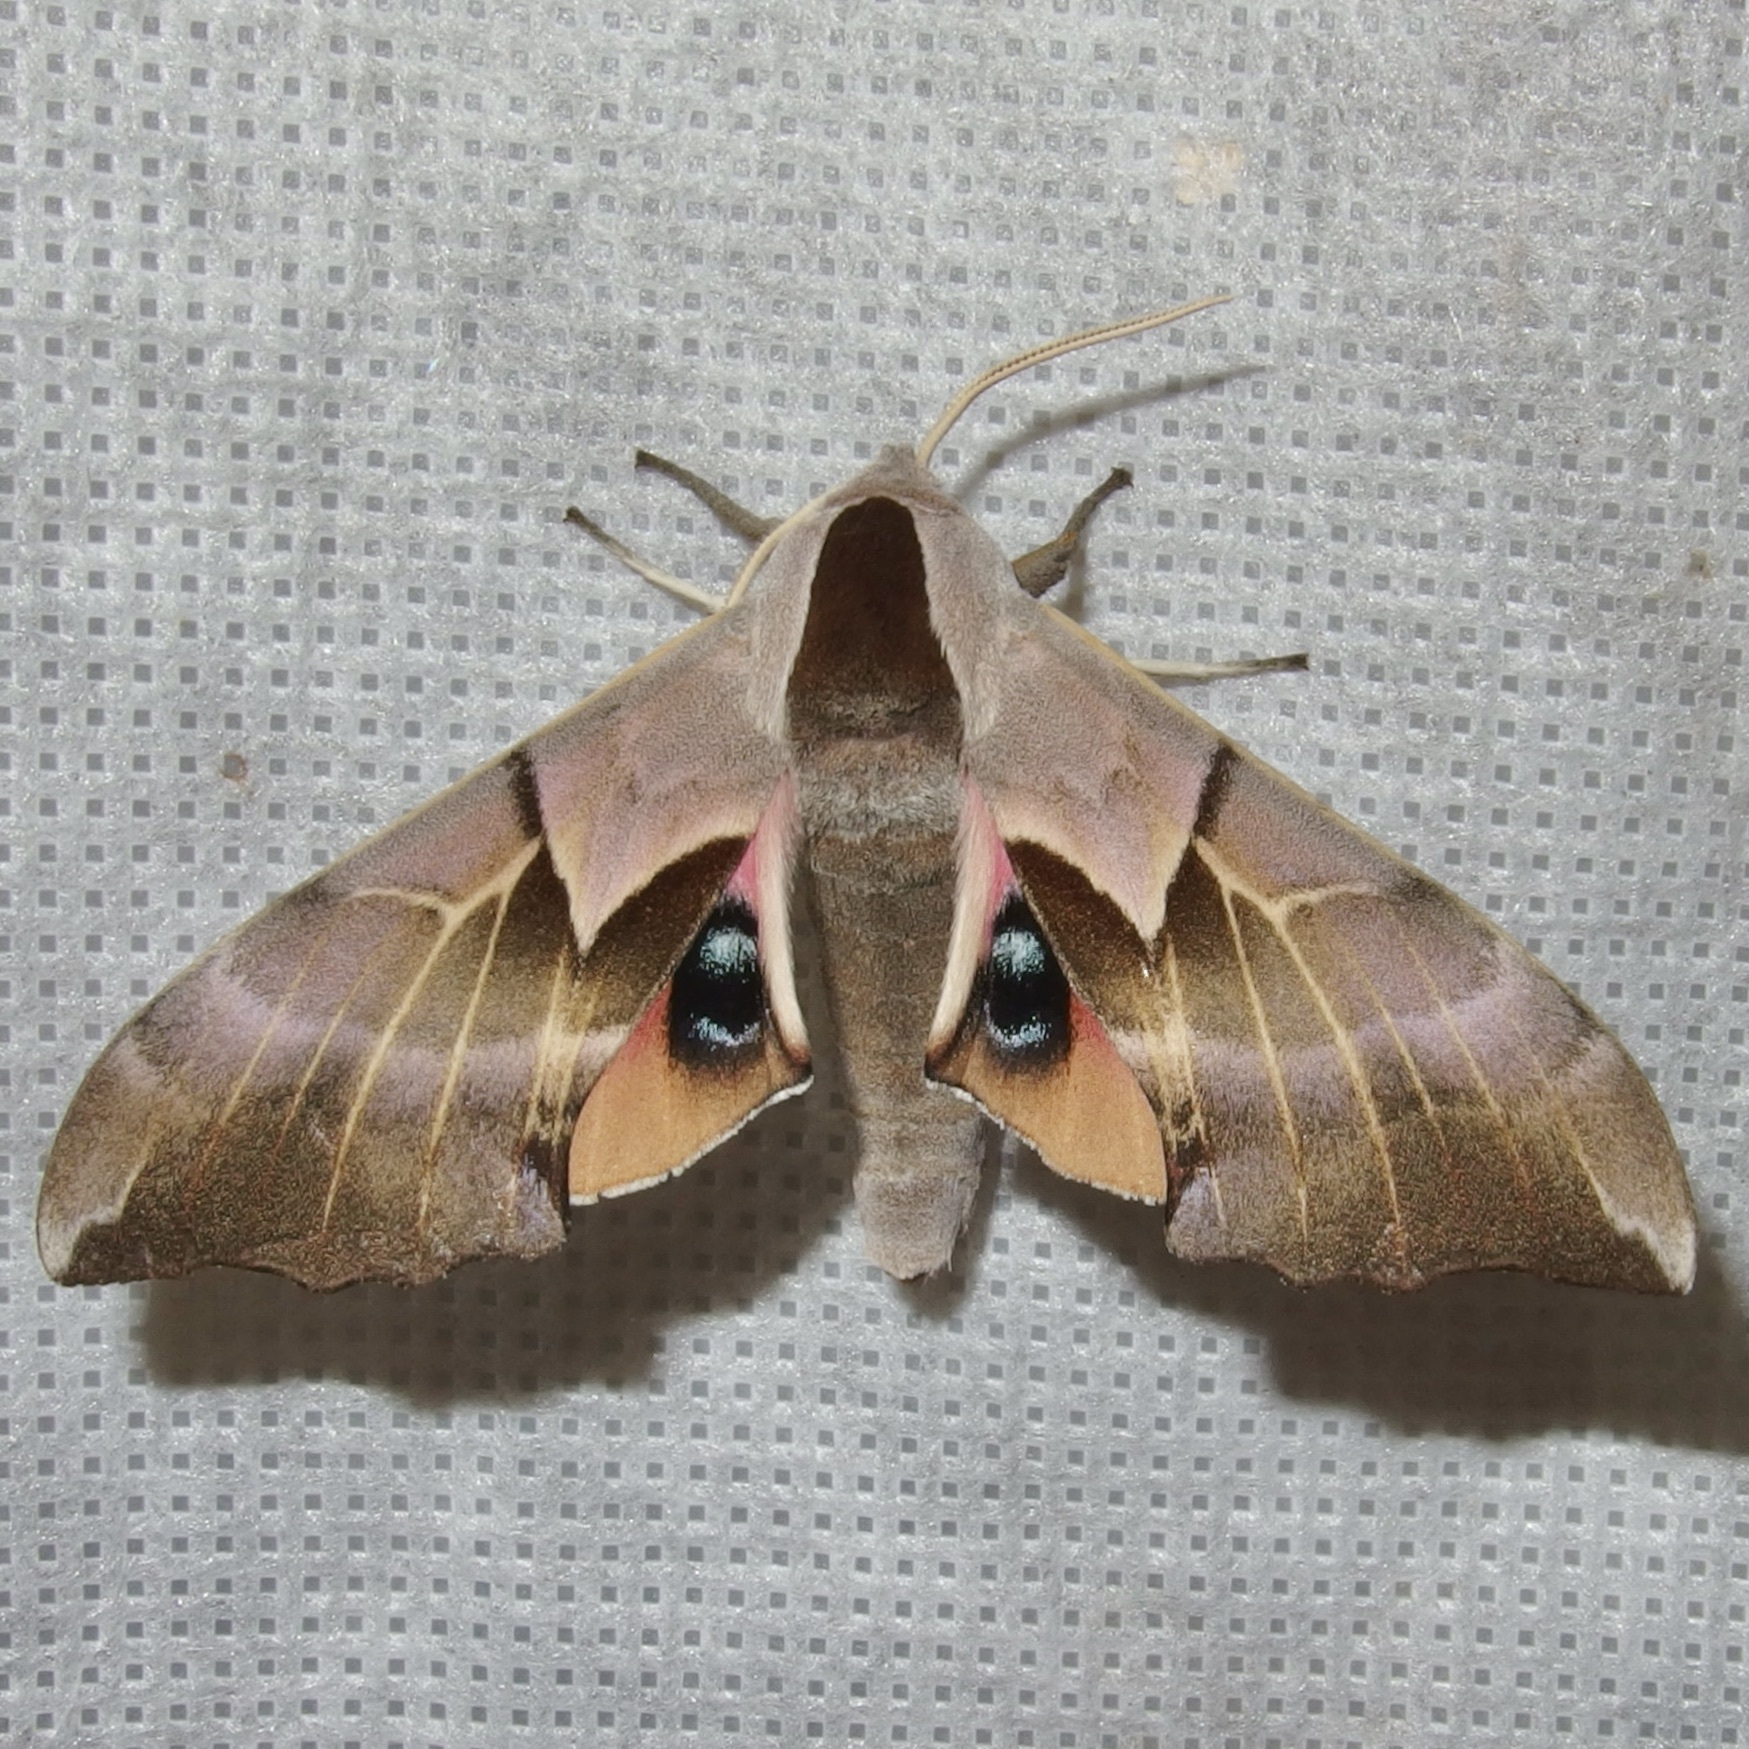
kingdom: Animalia
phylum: Arthropoda
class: Insecta
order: Lepidoptera
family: Sphingidae
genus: Smerinthus
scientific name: Smerinthus cerisyi
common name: Cerisy's sphinx moth
